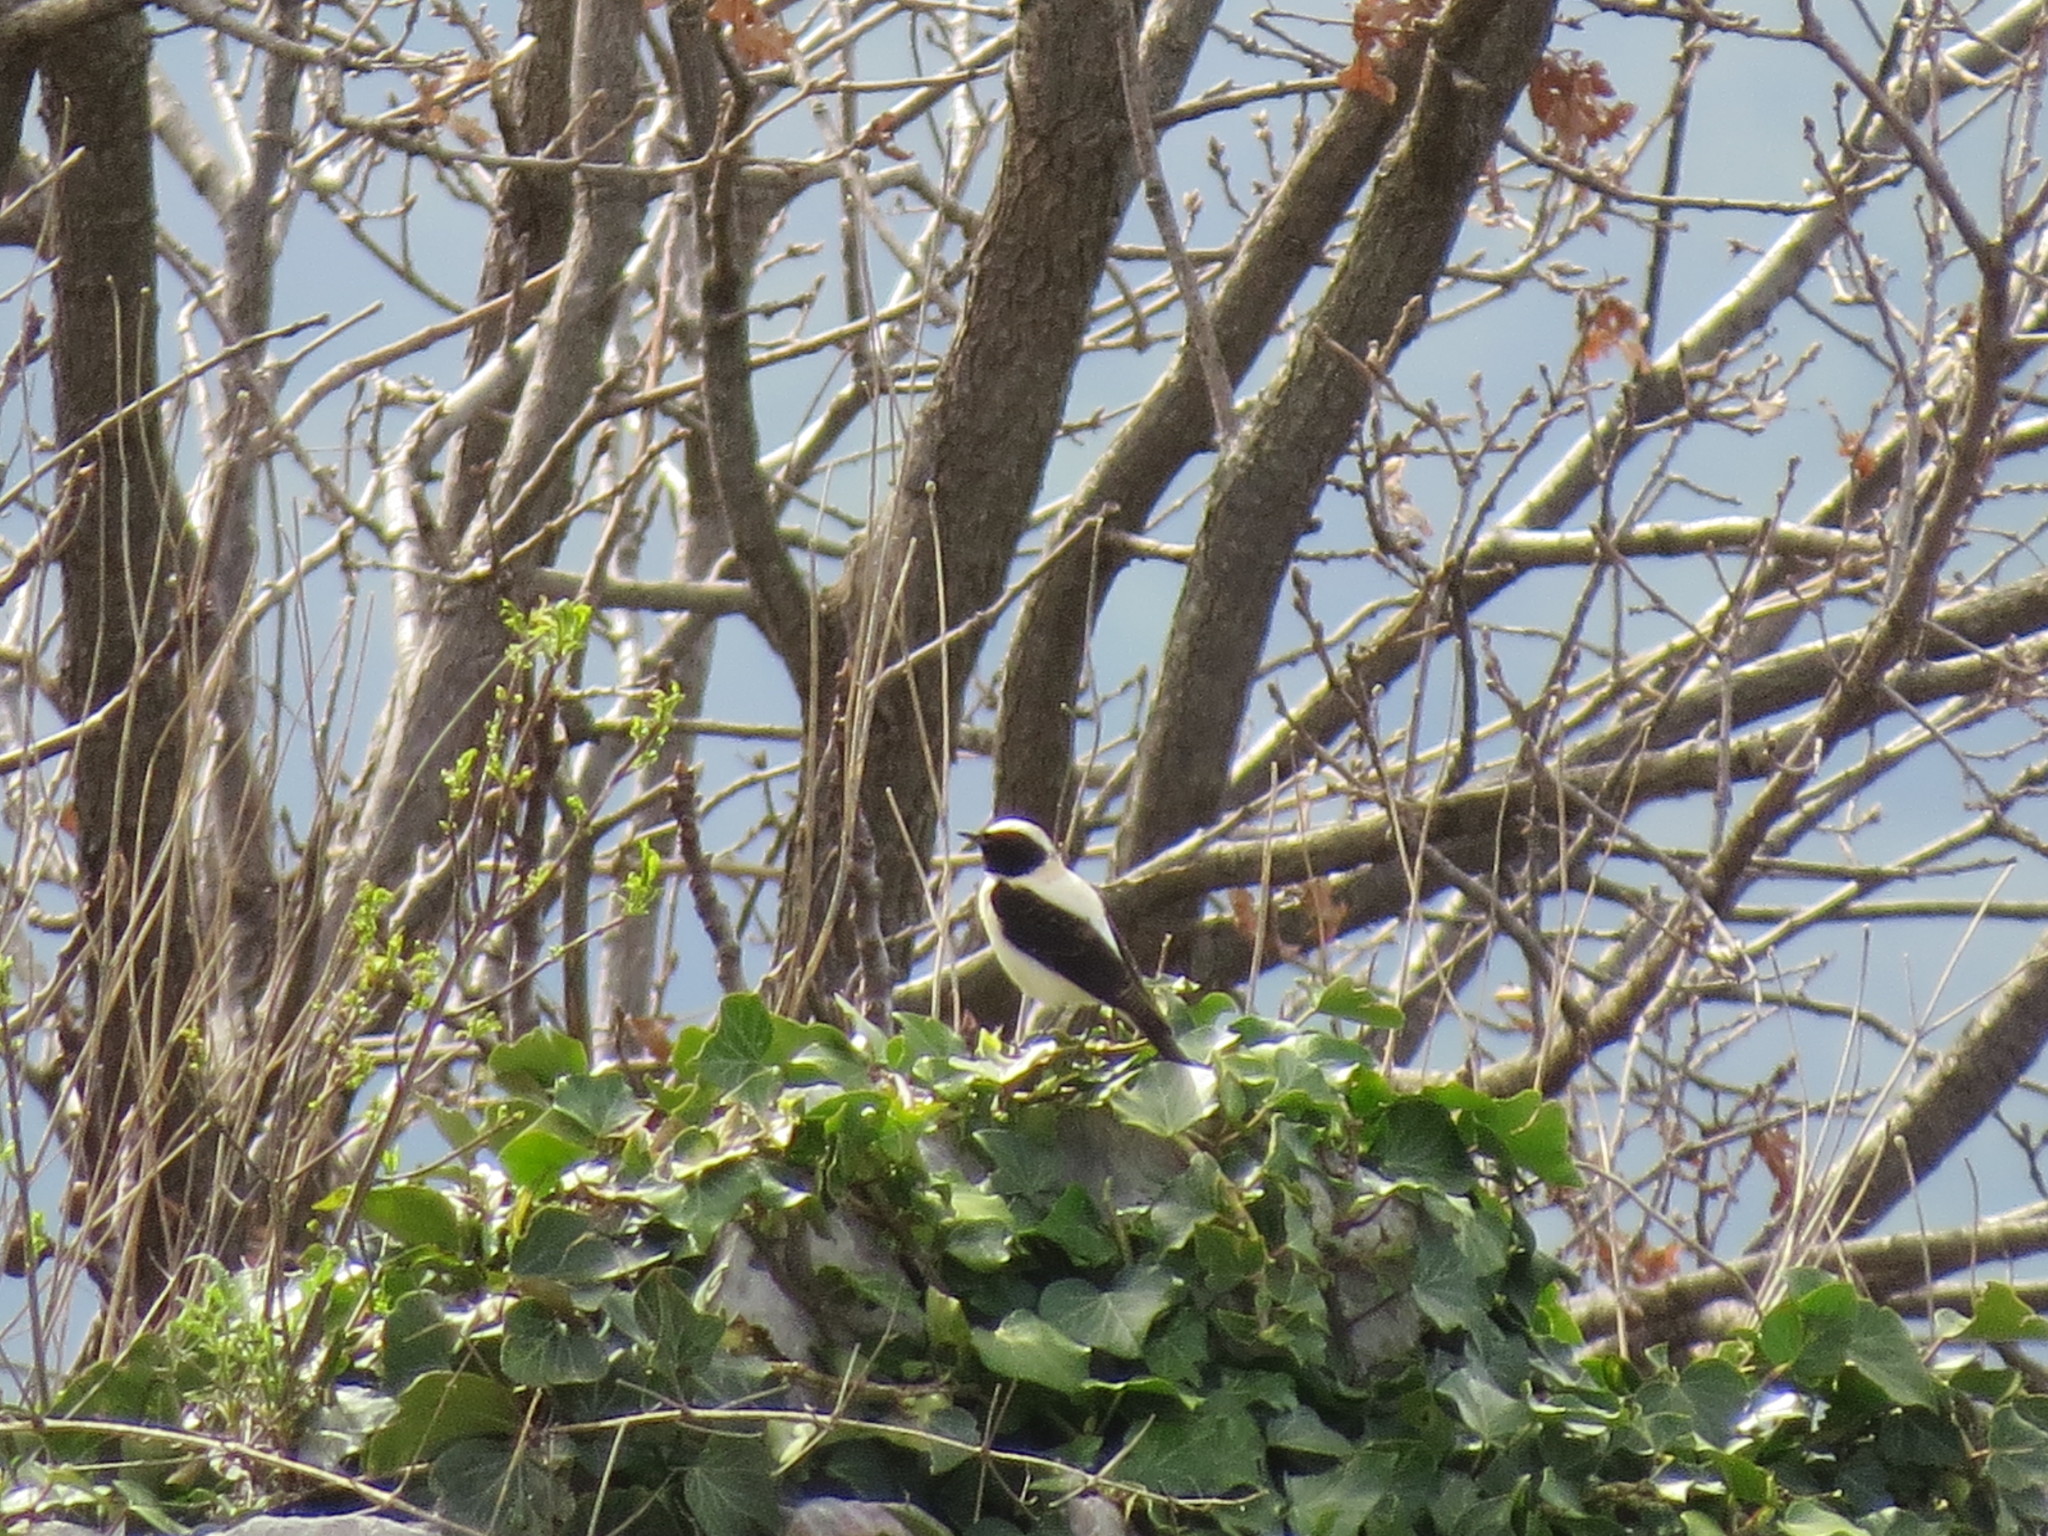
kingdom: Animalia
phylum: Chordata
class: Aves
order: Passeriformes
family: Muscicapidae
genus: Oenanthe
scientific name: Oenanthe hispanica
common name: Black-eared wheatear
